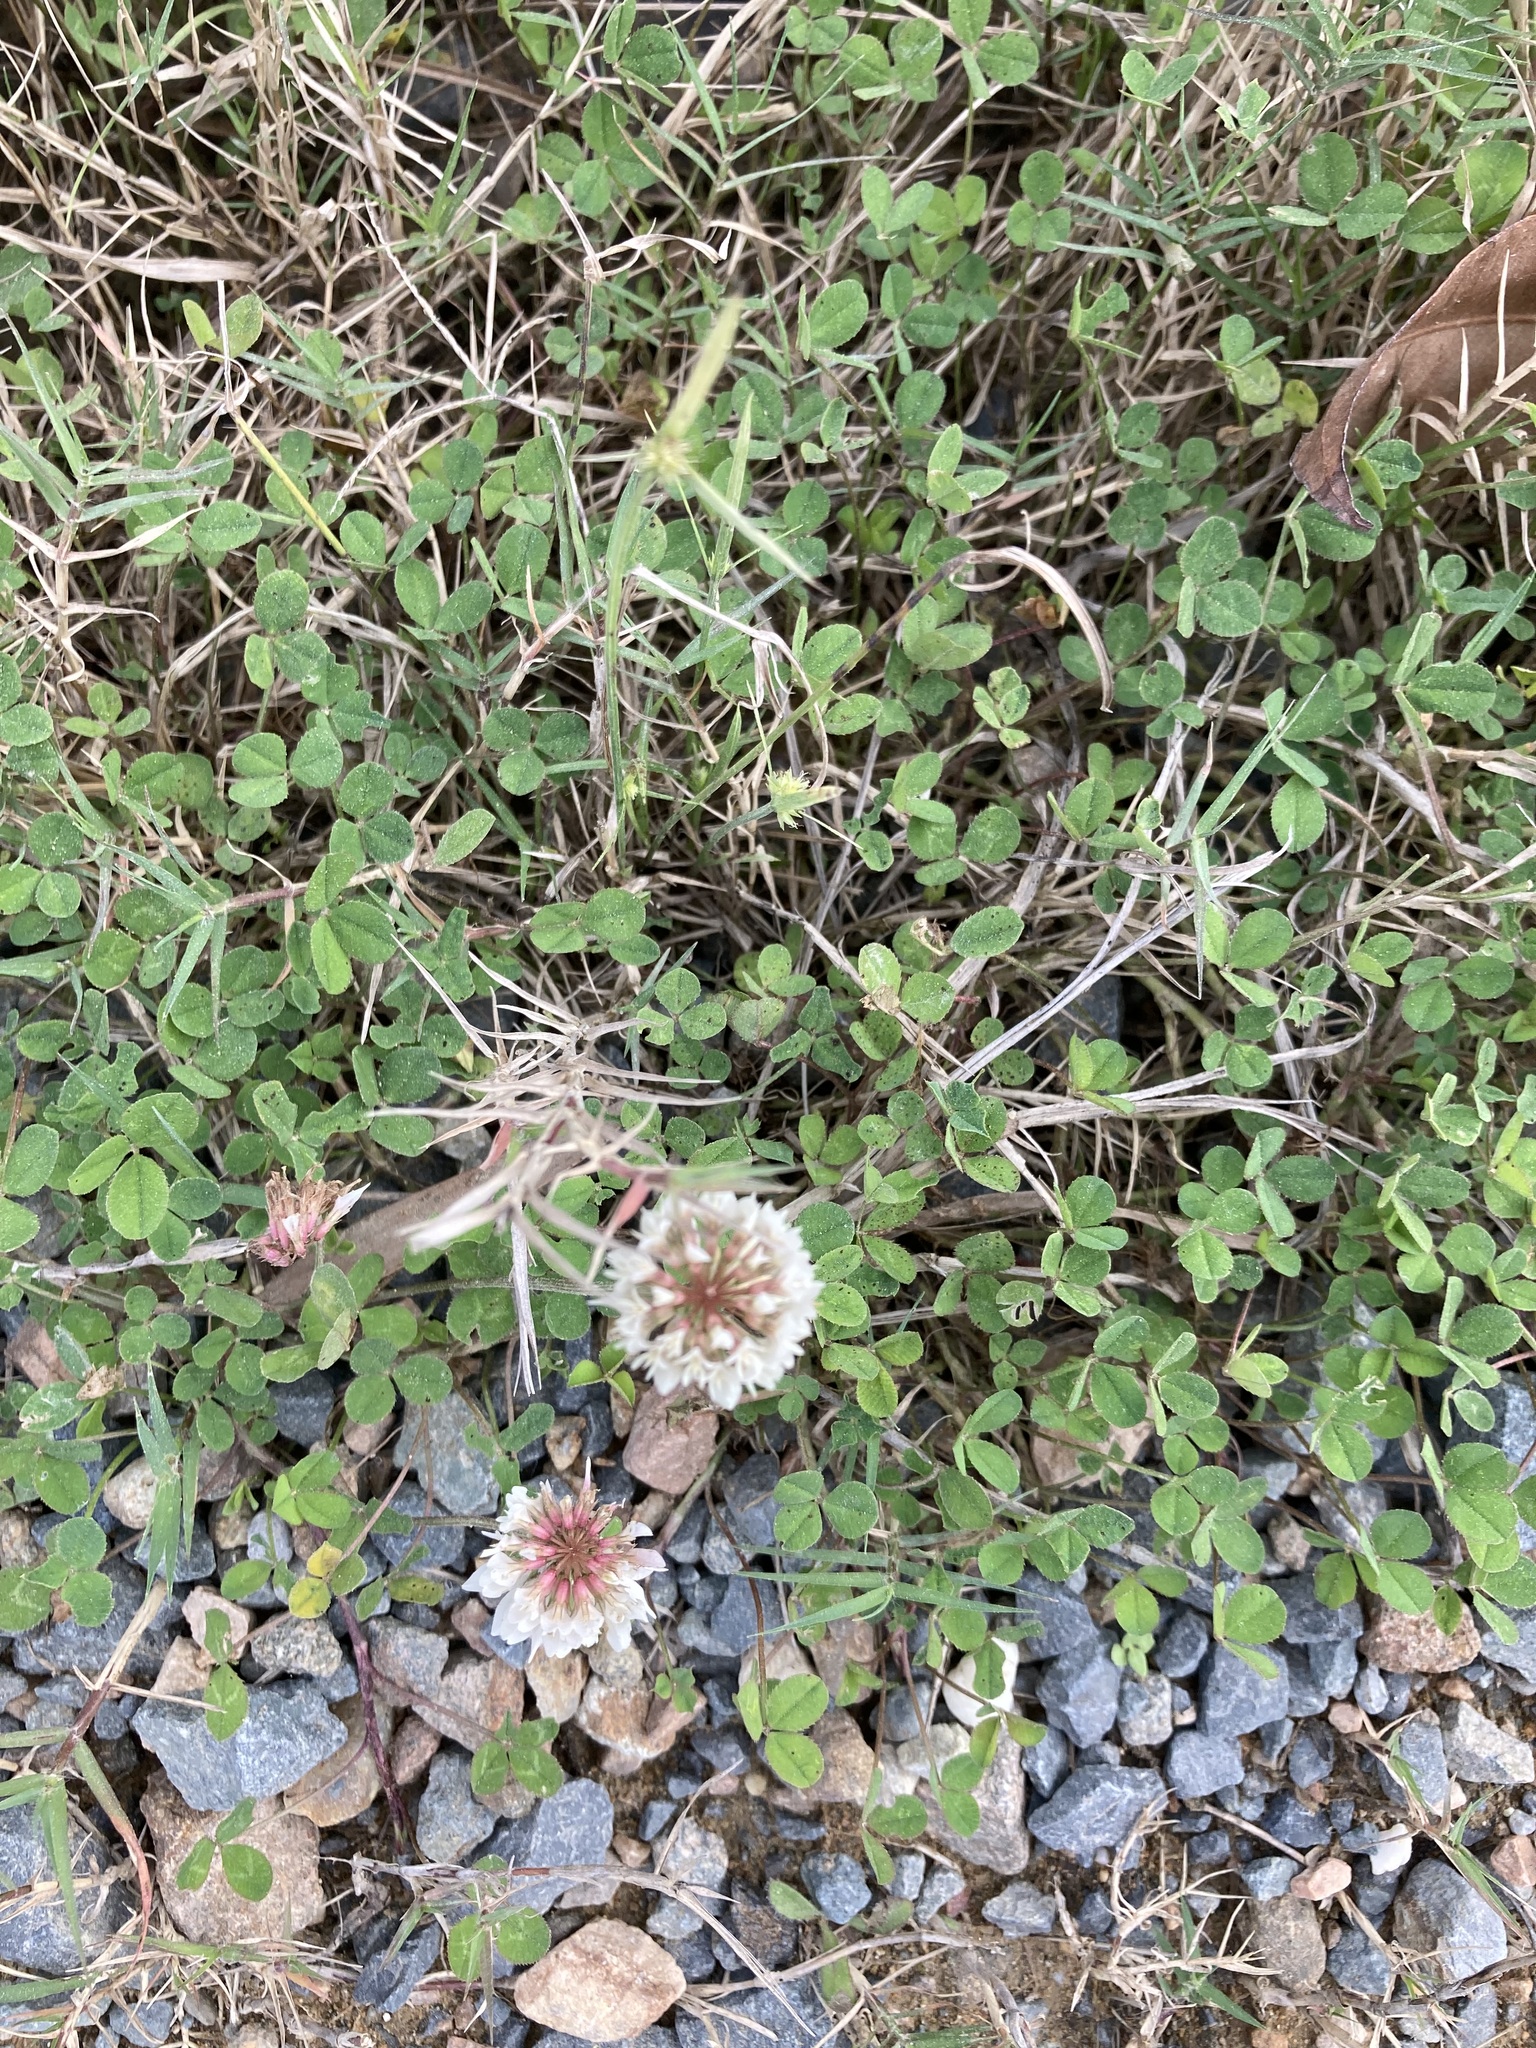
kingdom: Plantae
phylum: Tracheophyta
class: Magnoliopsida
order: Fabales
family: Fabaceae
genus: Trifolium
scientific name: Trifolium repens
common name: White clover
